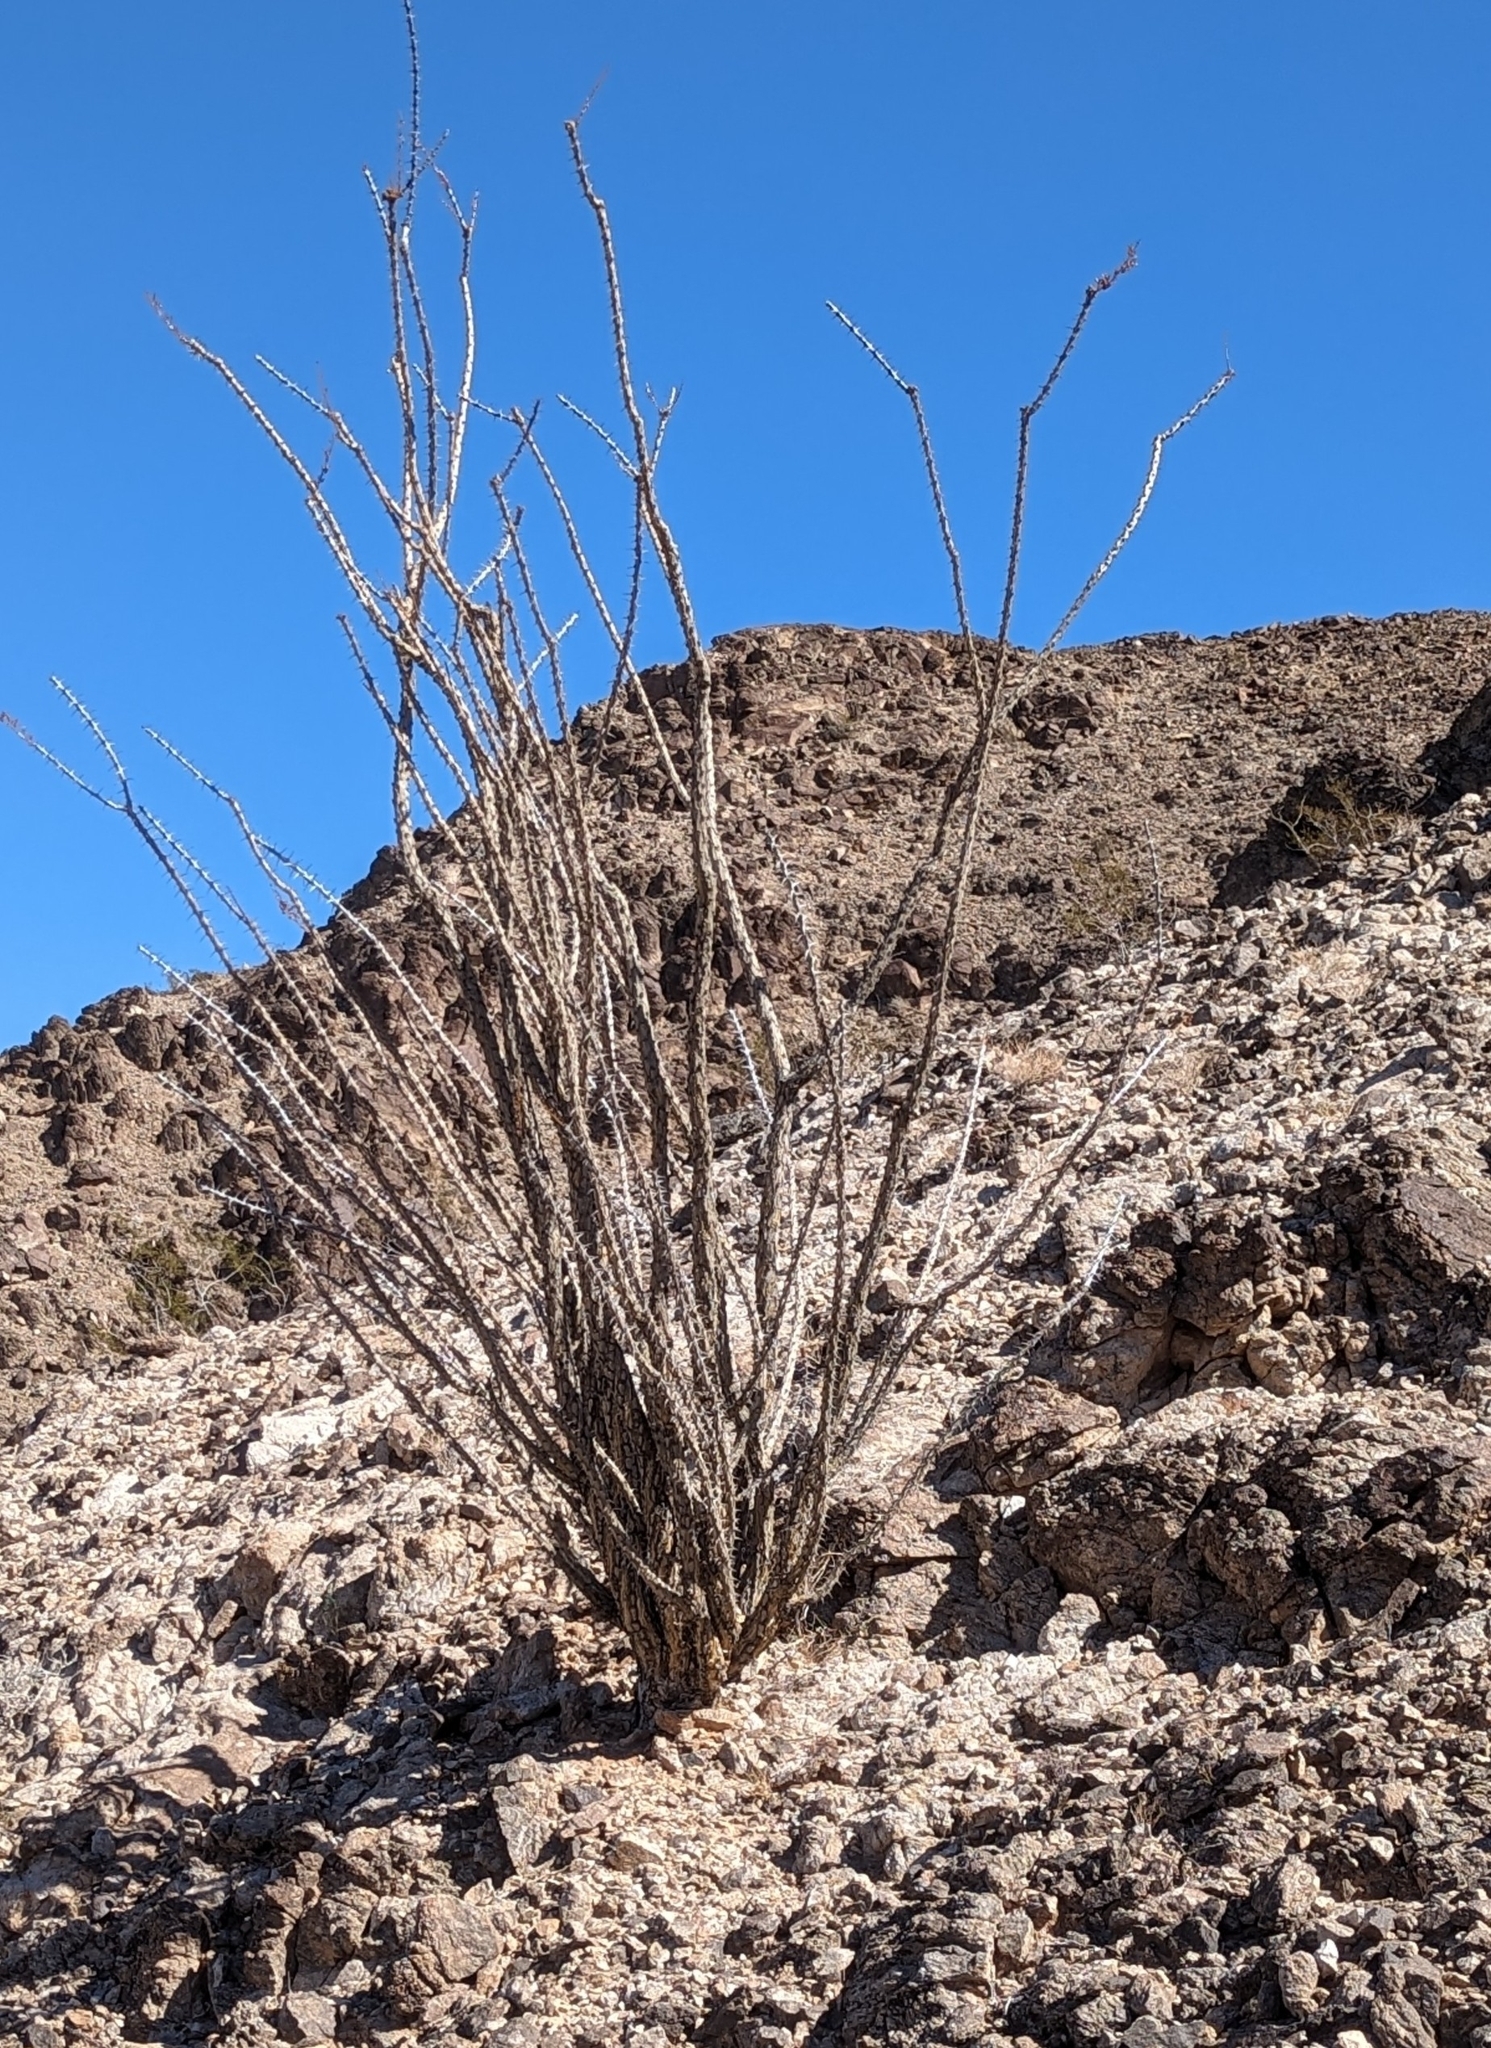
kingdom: Plantae
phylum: Tracheophyta
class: Magnoliopsida
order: Ericales
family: Fouquieriaceae
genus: Fouquieria
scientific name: Fouquieria splendens
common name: Vine-cactus
